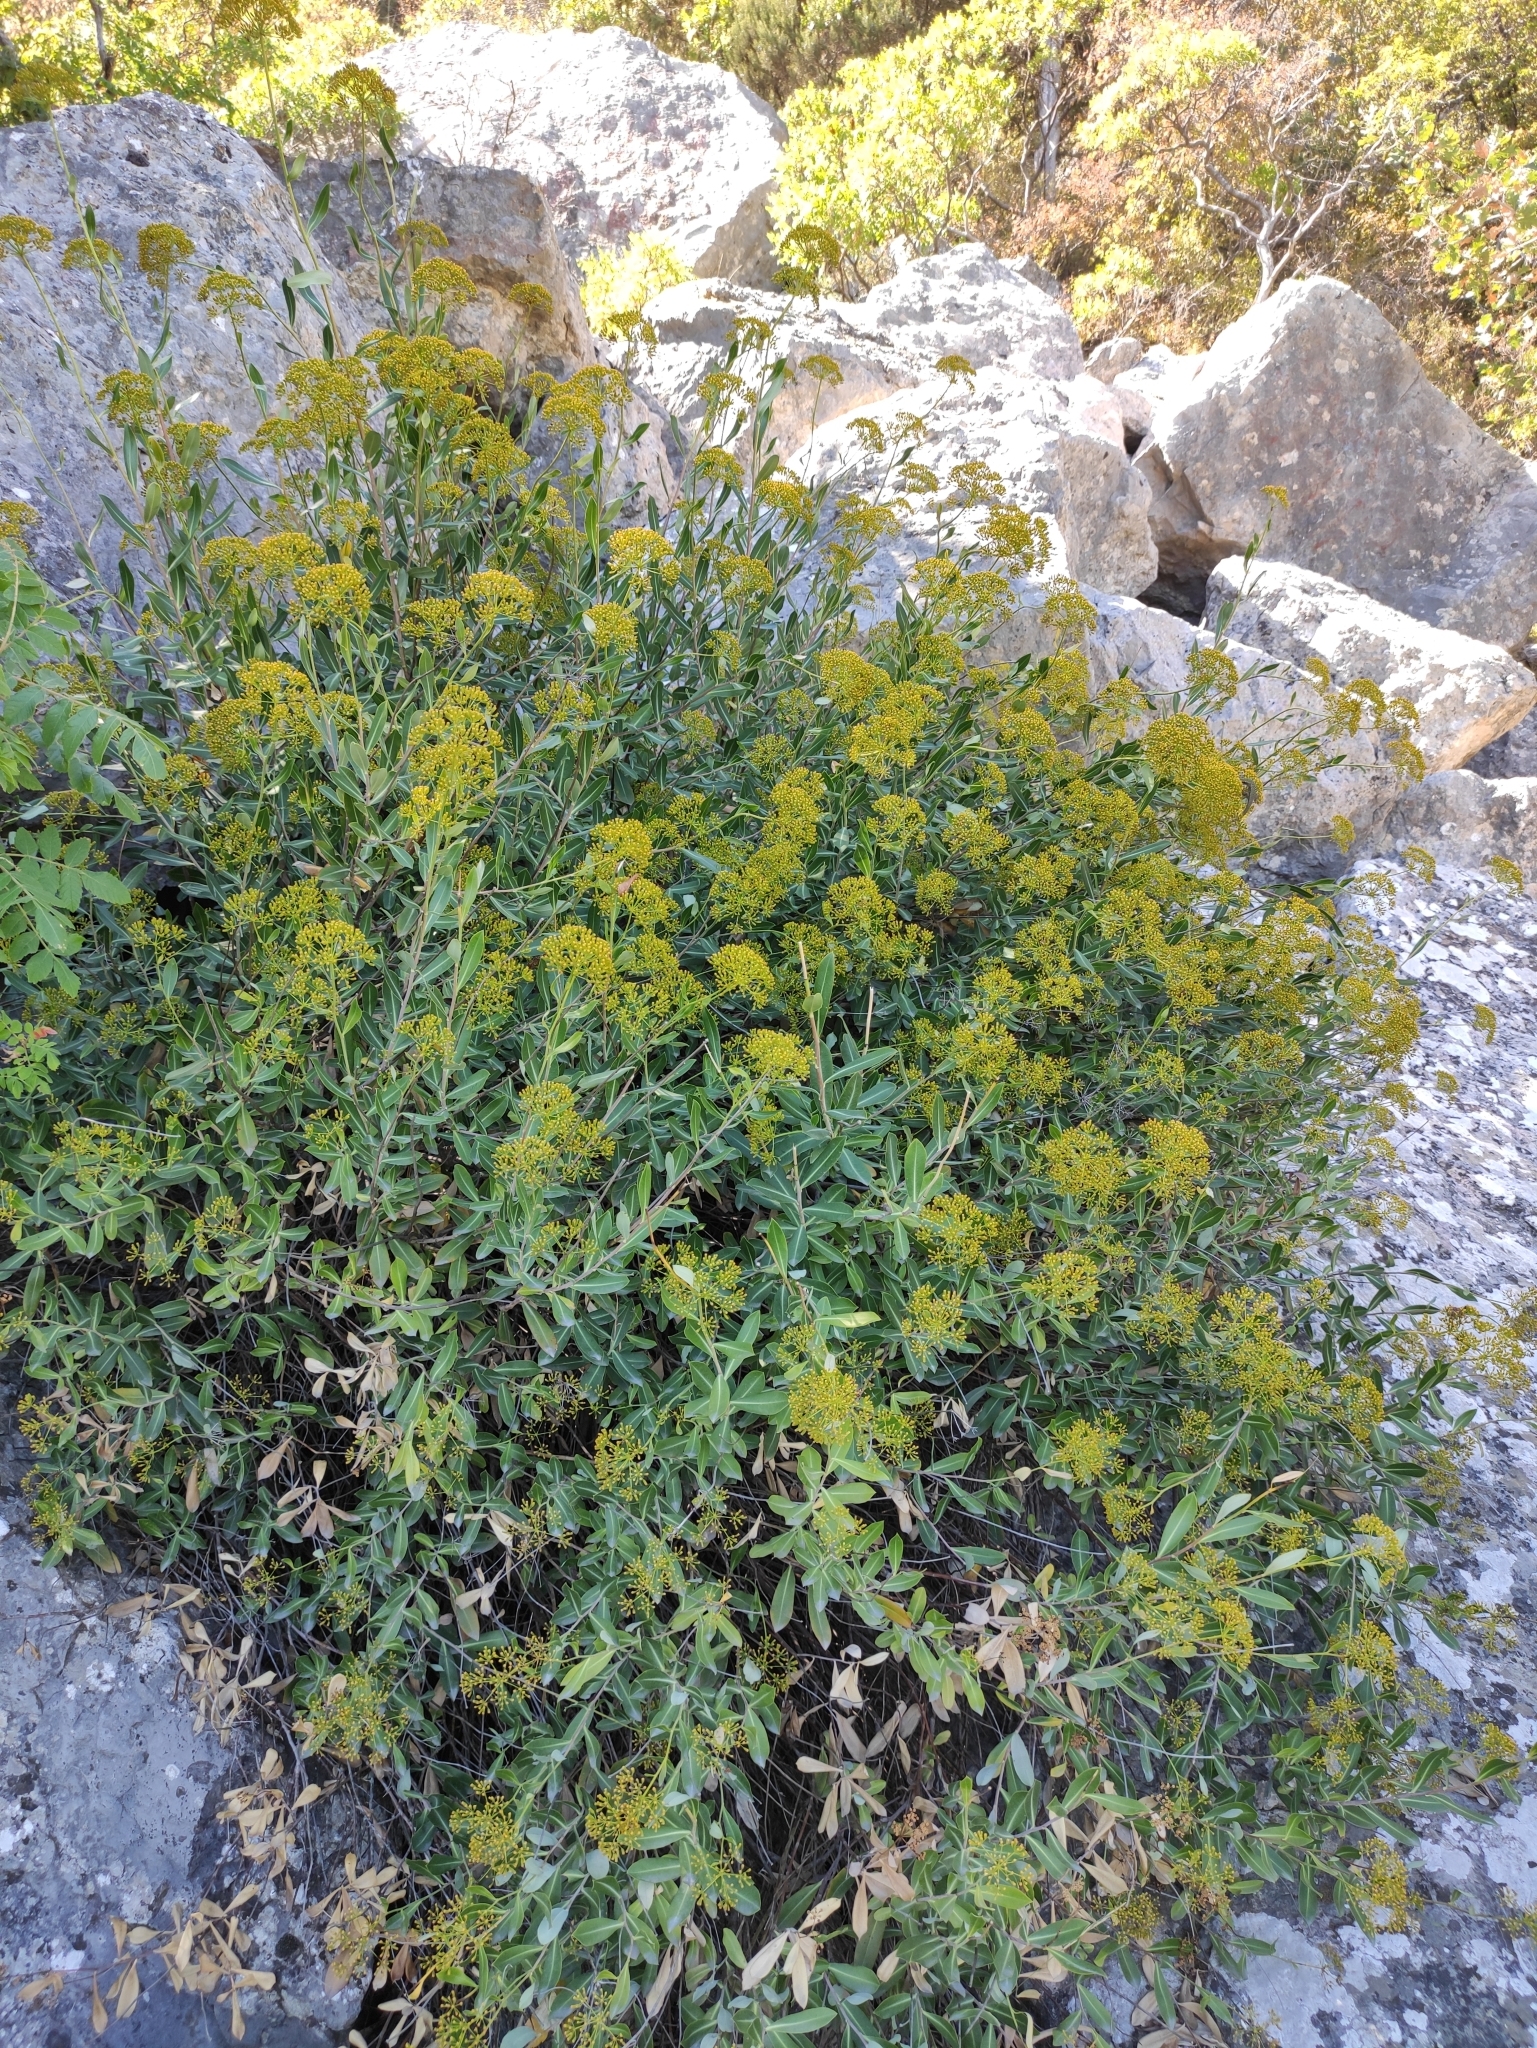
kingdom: Plantae
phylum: Tracheophyta
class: Magnoliopsida
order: Apiales
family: Apiaceae
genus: Bupleurum
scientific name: Bupleurum fruticosum
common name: Shrubby hare's-ear
